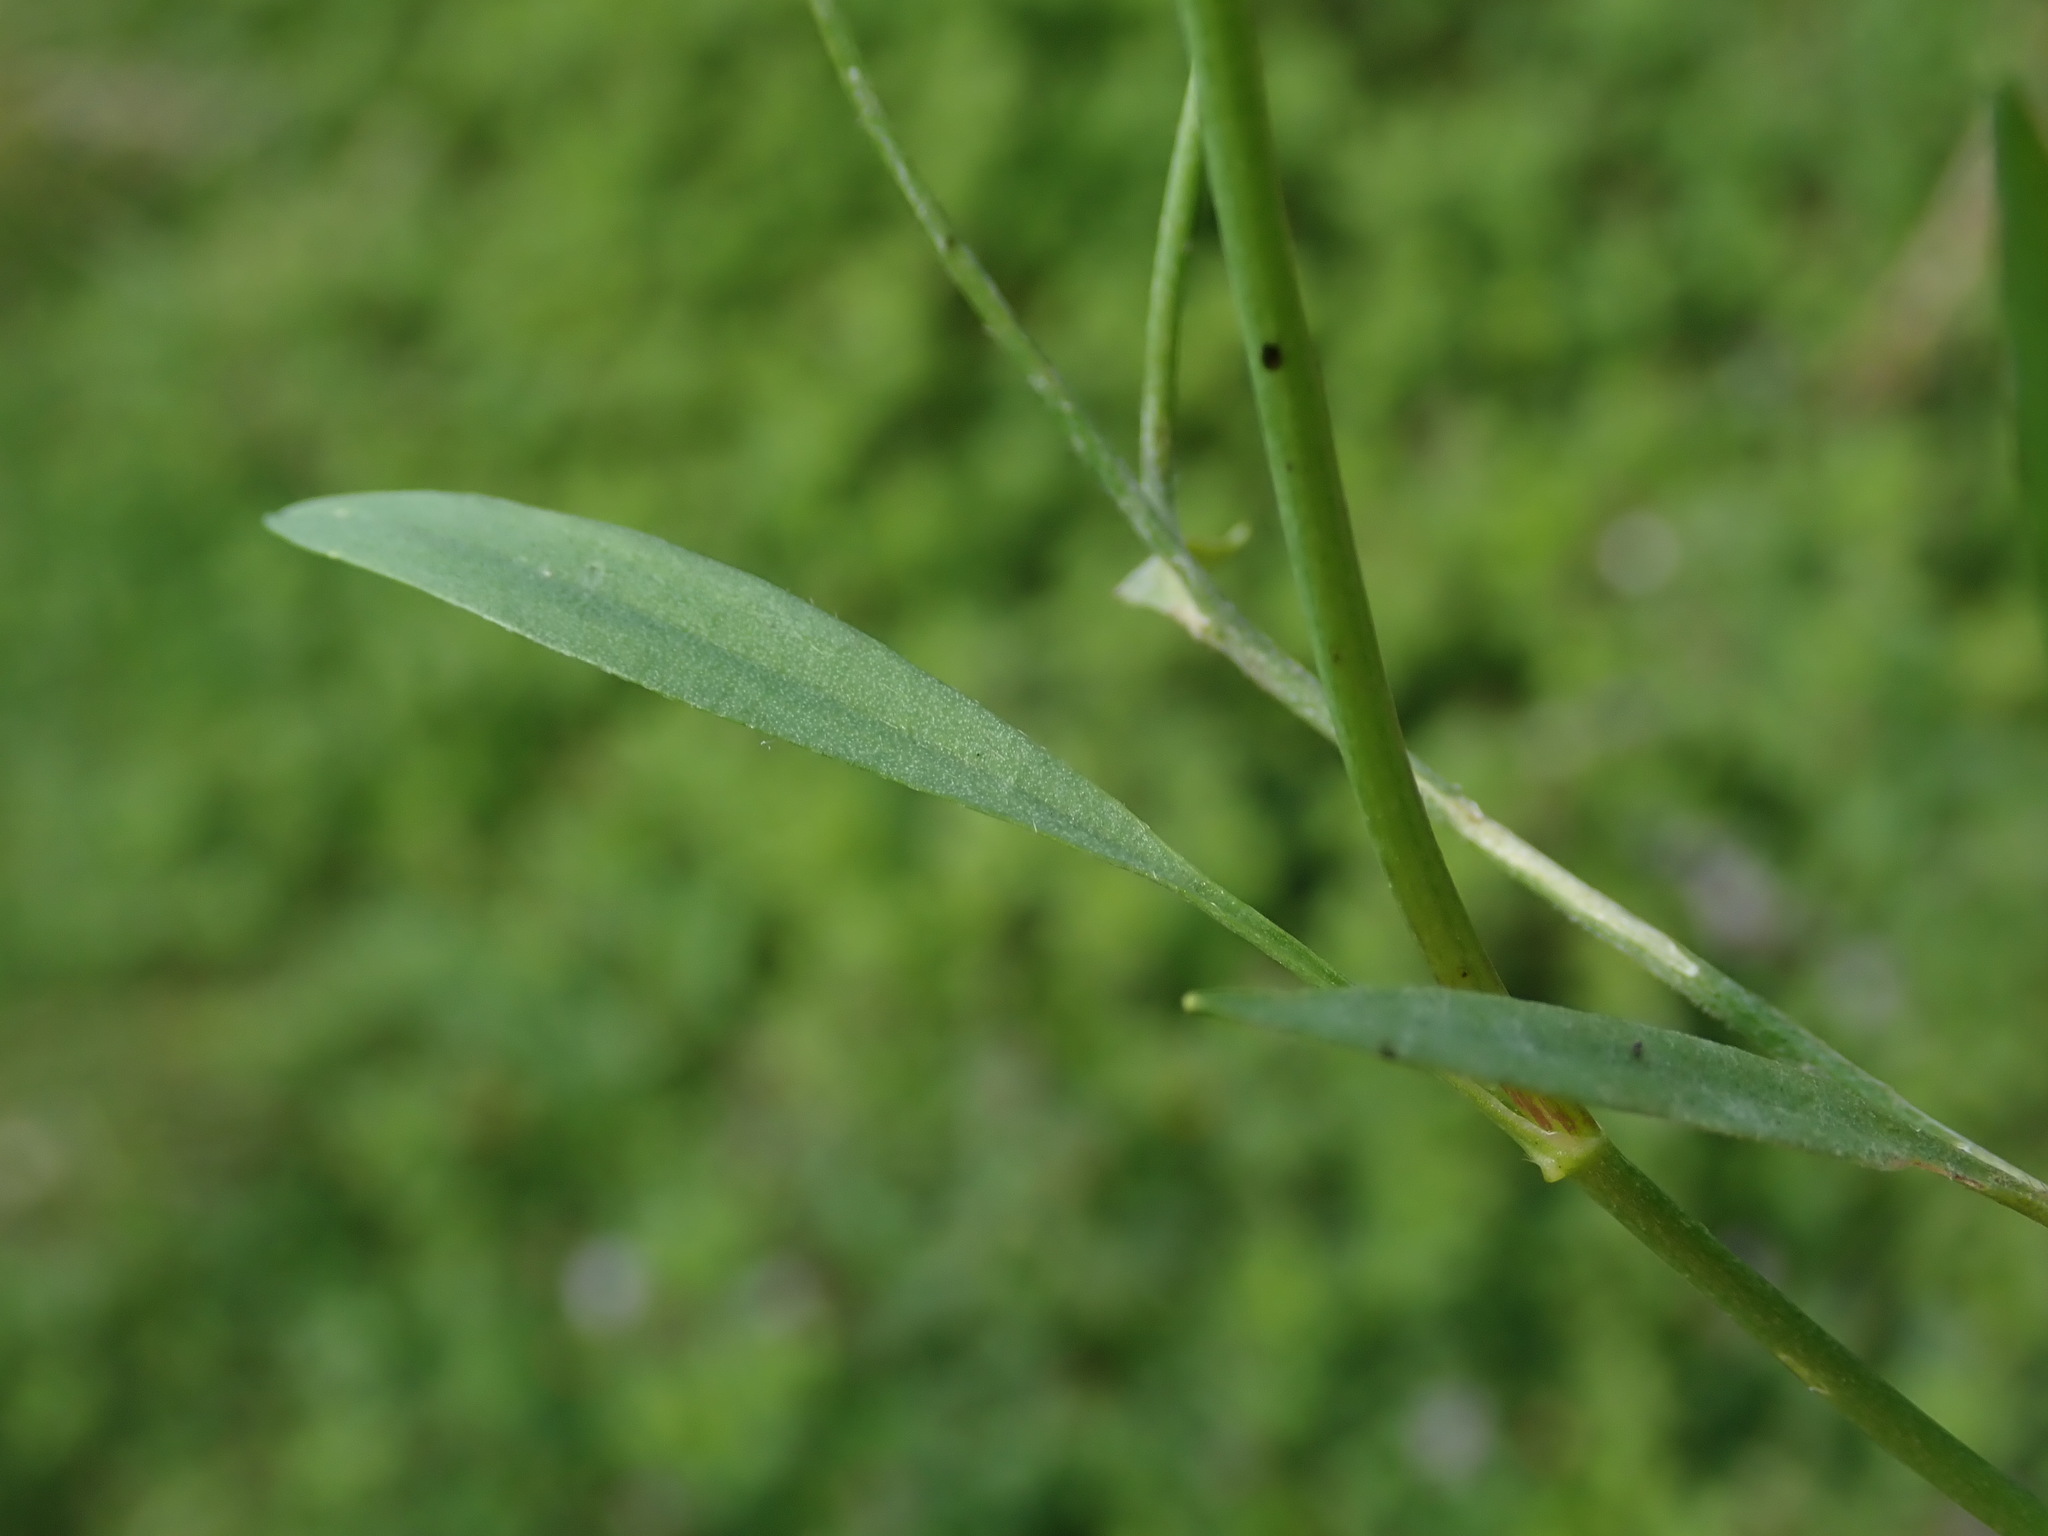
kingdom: Plantae
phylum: Tracheophyta
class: Magnoliopsida
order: Ranunculales
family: Ranunculaceae
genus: Ranunculus
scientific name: Ranunculus flammula
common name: Lesser spearwort
